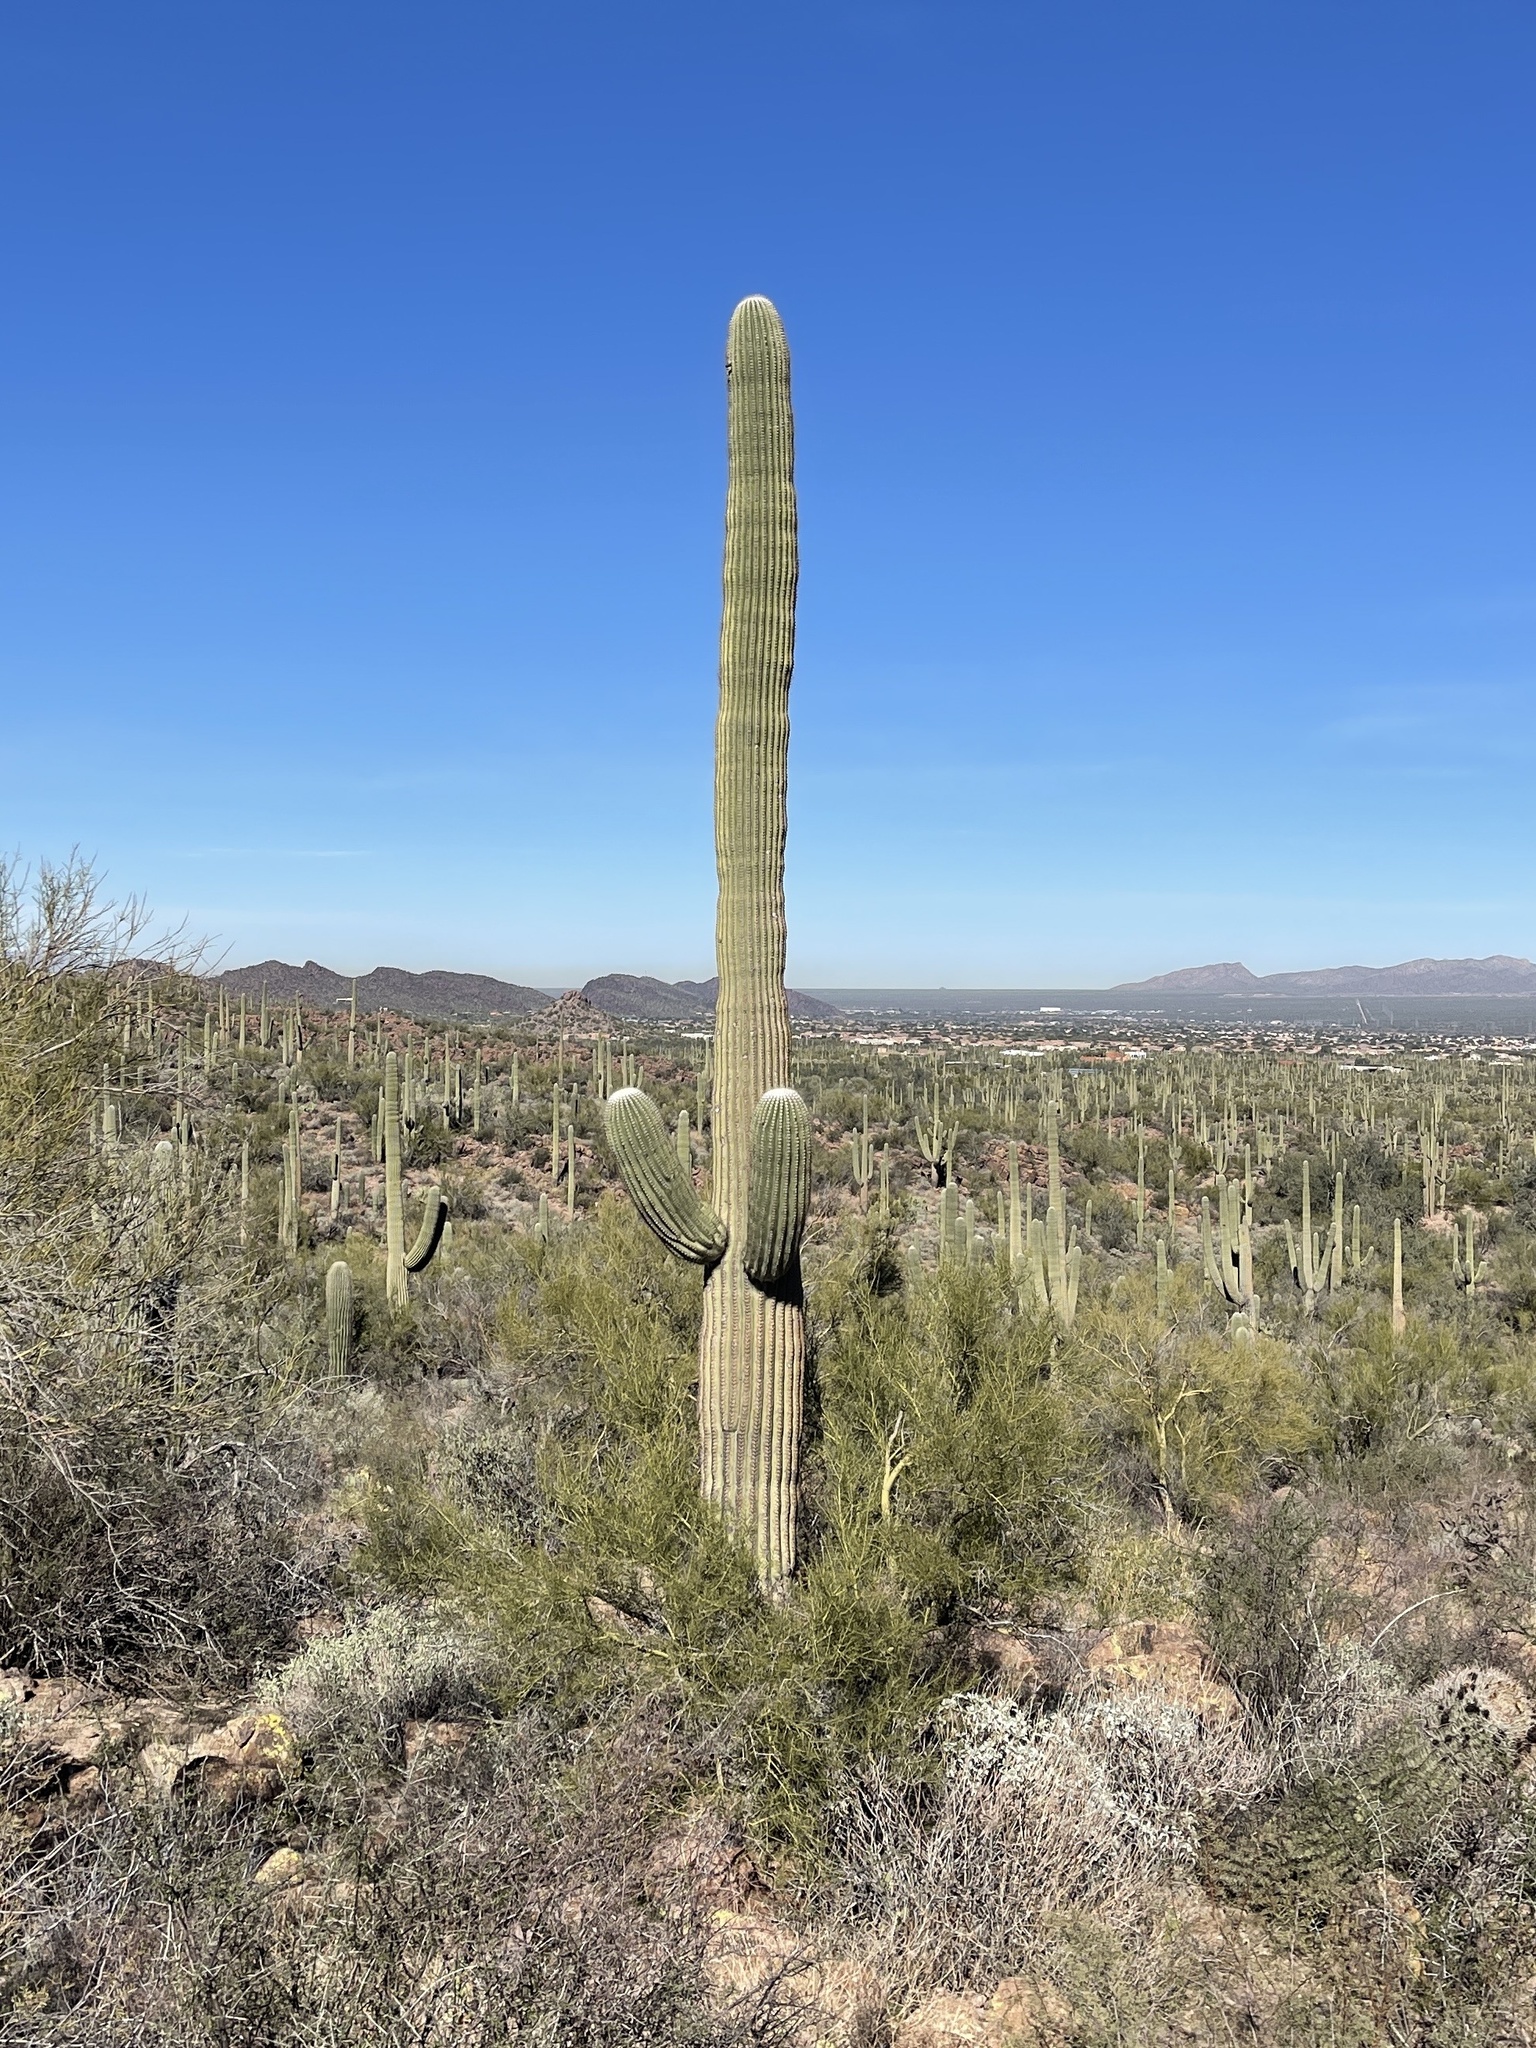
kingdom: Plantae
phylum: Tracheophyta
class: Magnoliopsida
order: Caryophyllales
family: Cactaceae
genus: Carnegiea
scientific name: Carnegiea gigantea
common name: Saguaro
